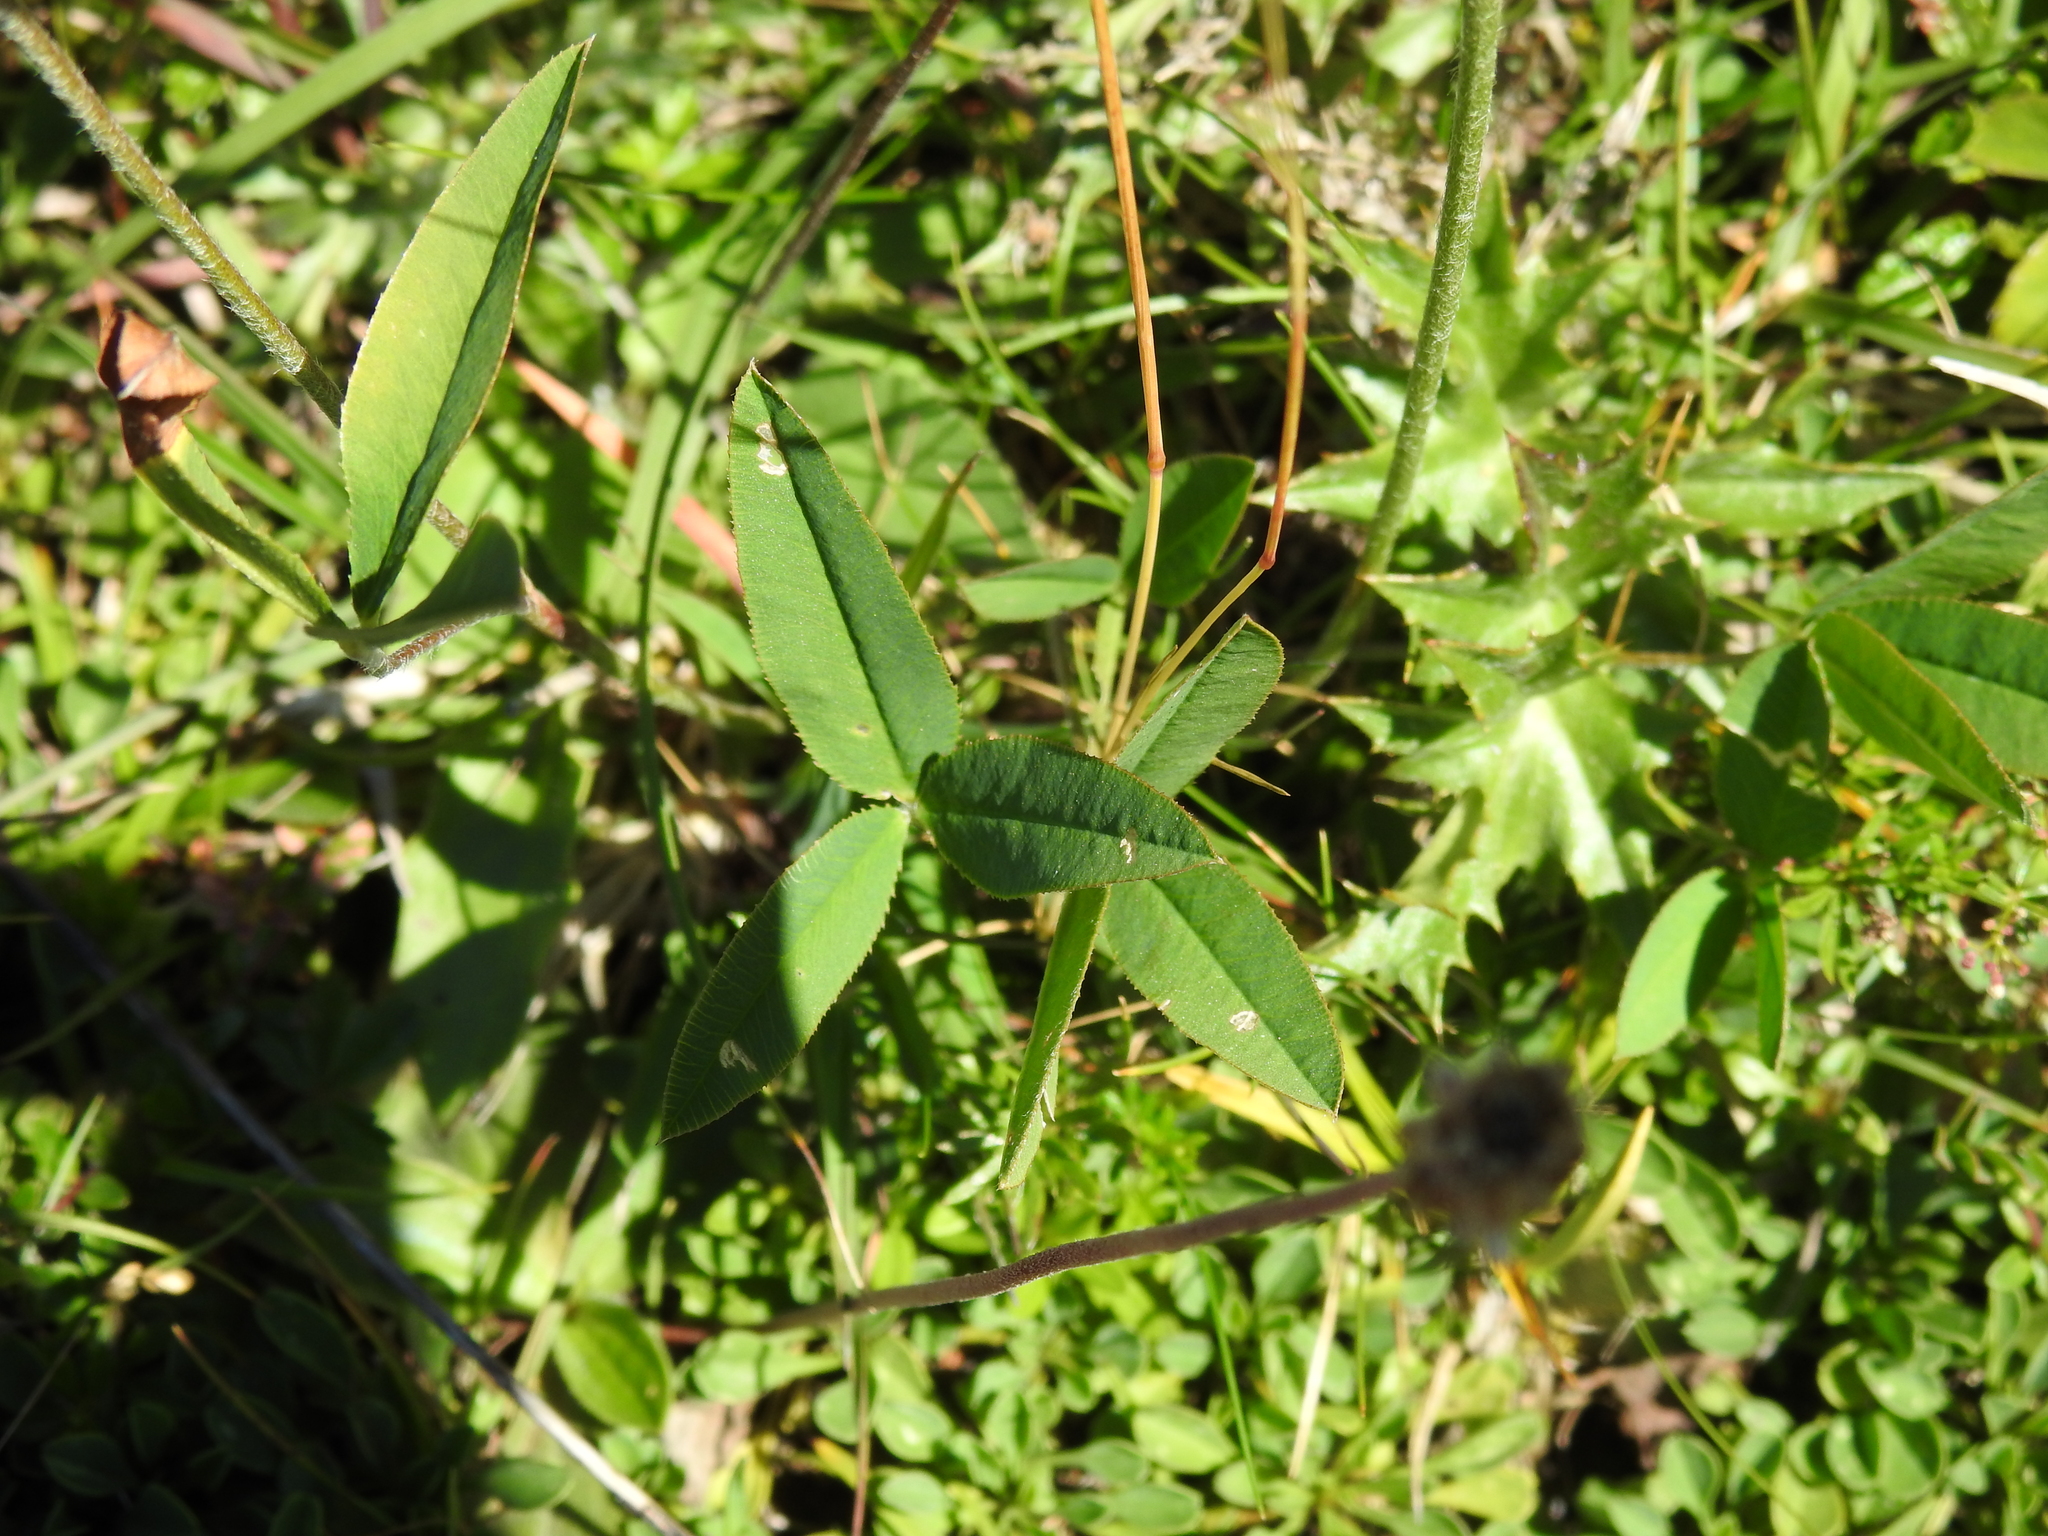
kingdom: Plantae
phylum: Tracheophyta
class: Magnoliopsida
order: Fabales
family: Fabaceae
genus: Trifolium
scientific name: Trifolium montanum
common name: Mountain clover
